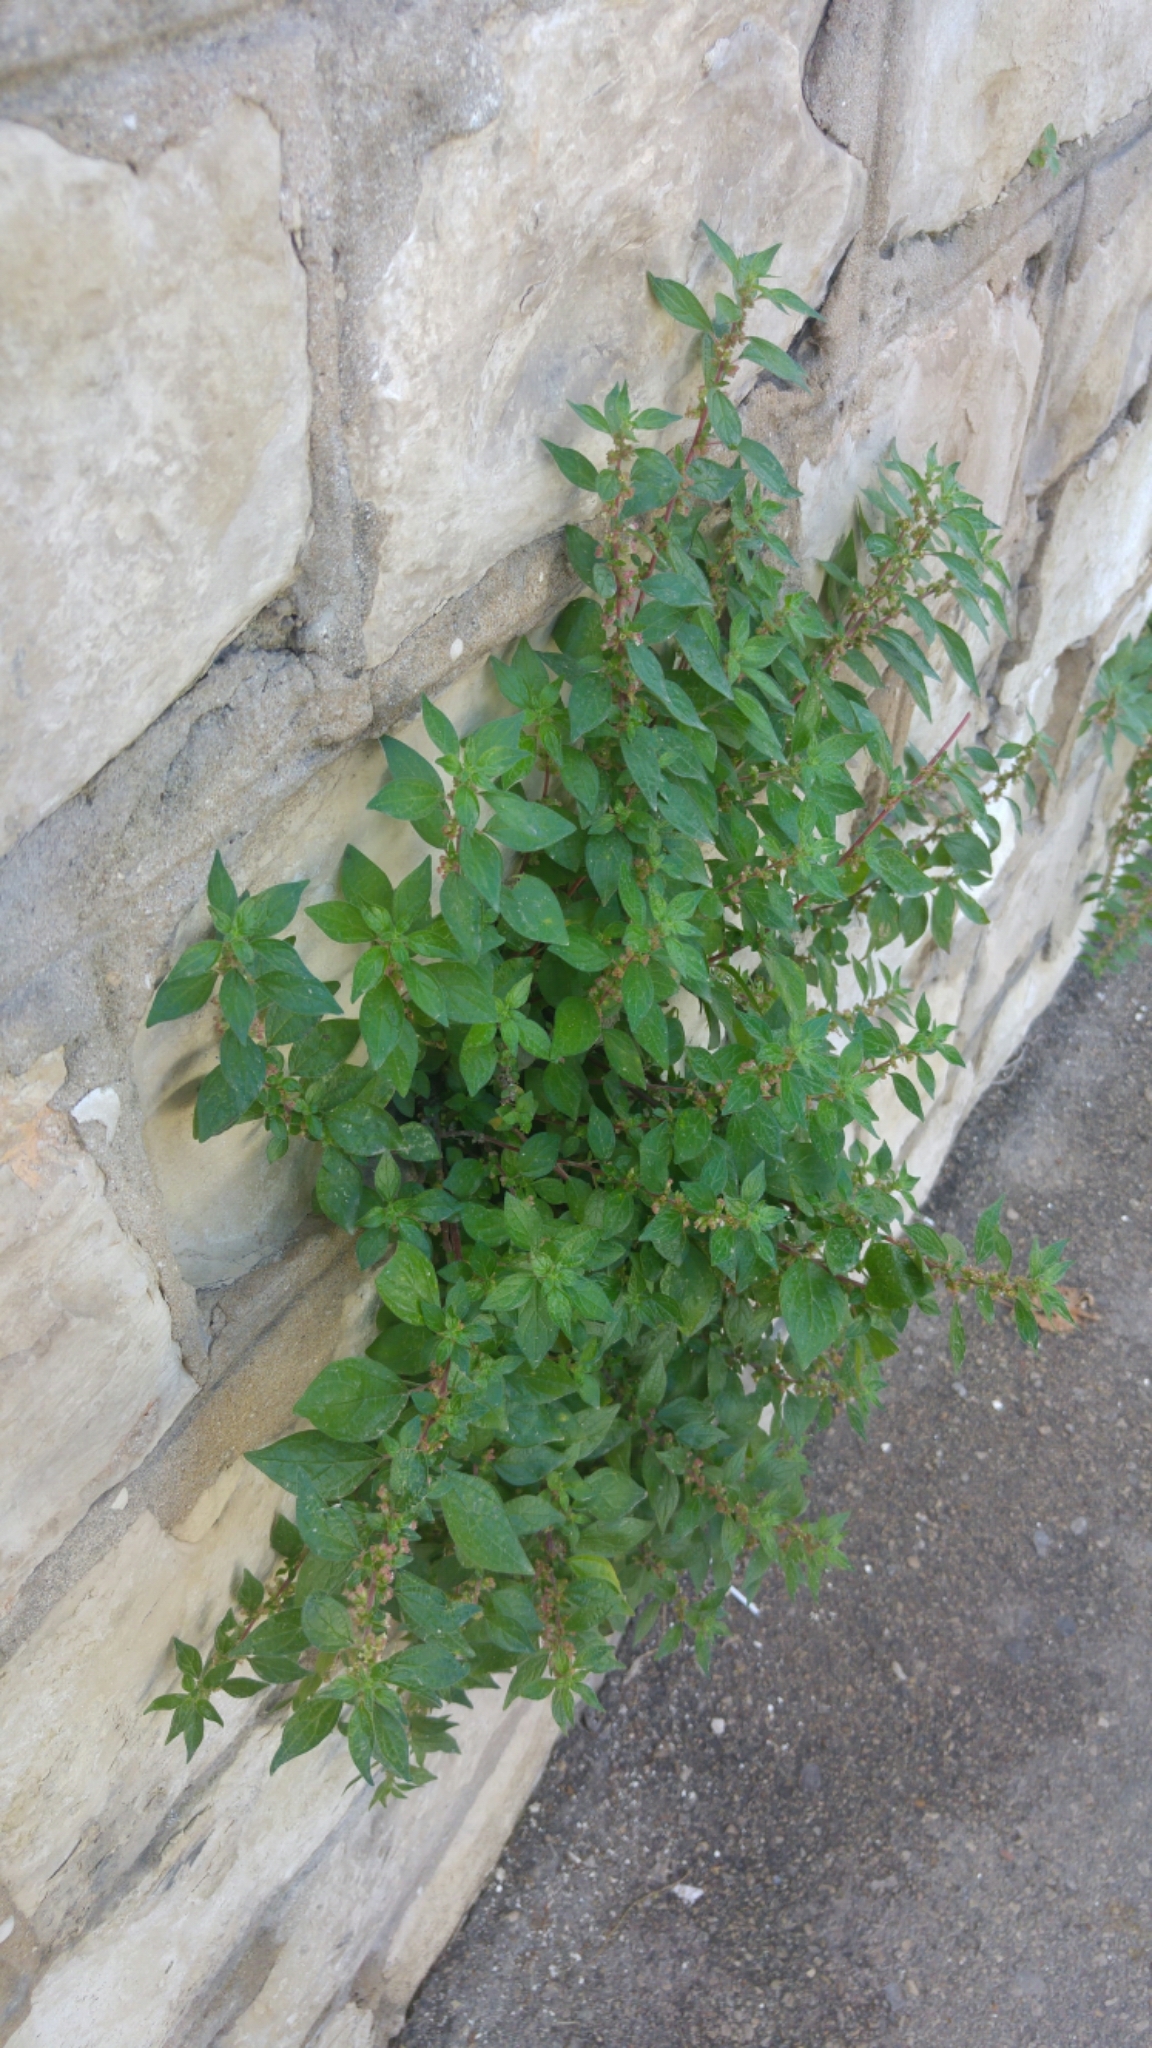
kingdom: Plantae
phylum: Tracheophyta
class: Magnoliopsida
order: Rosales
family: Urticaceae
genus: Parietaria
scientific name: Parietaria judaica
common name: Pellitory-of-the-wall
